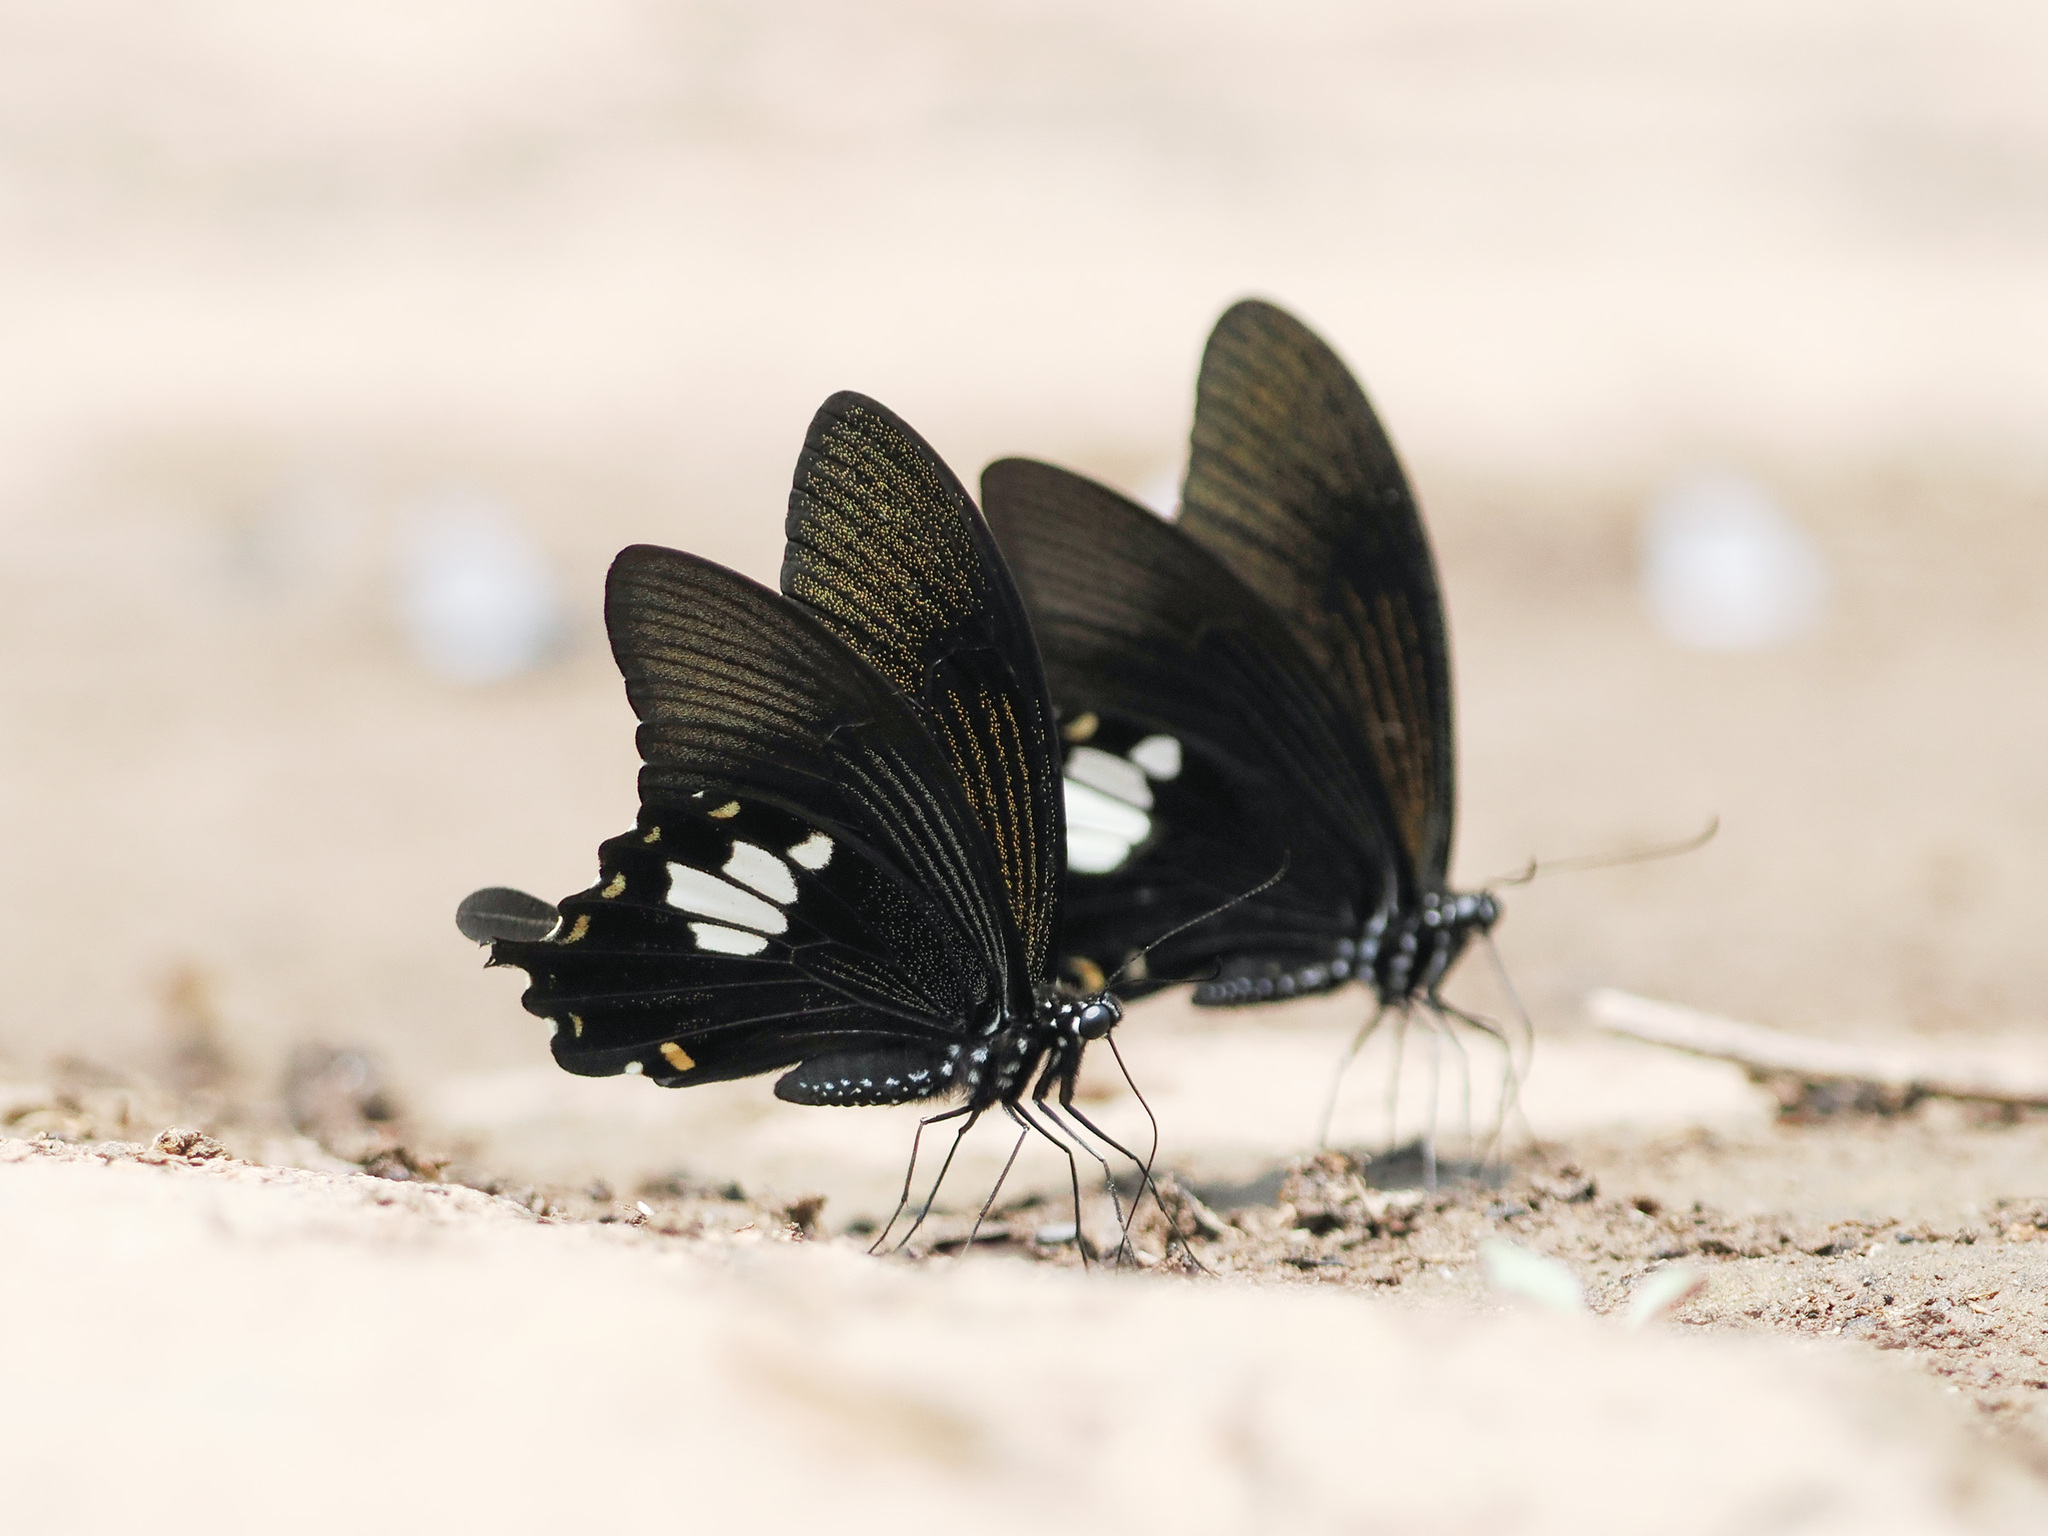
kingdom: Animalia
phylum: Arthropoda
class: Insecta
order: Lepidoptera
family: Papilionidae
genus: Papilio
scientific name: Papilio nephelus
